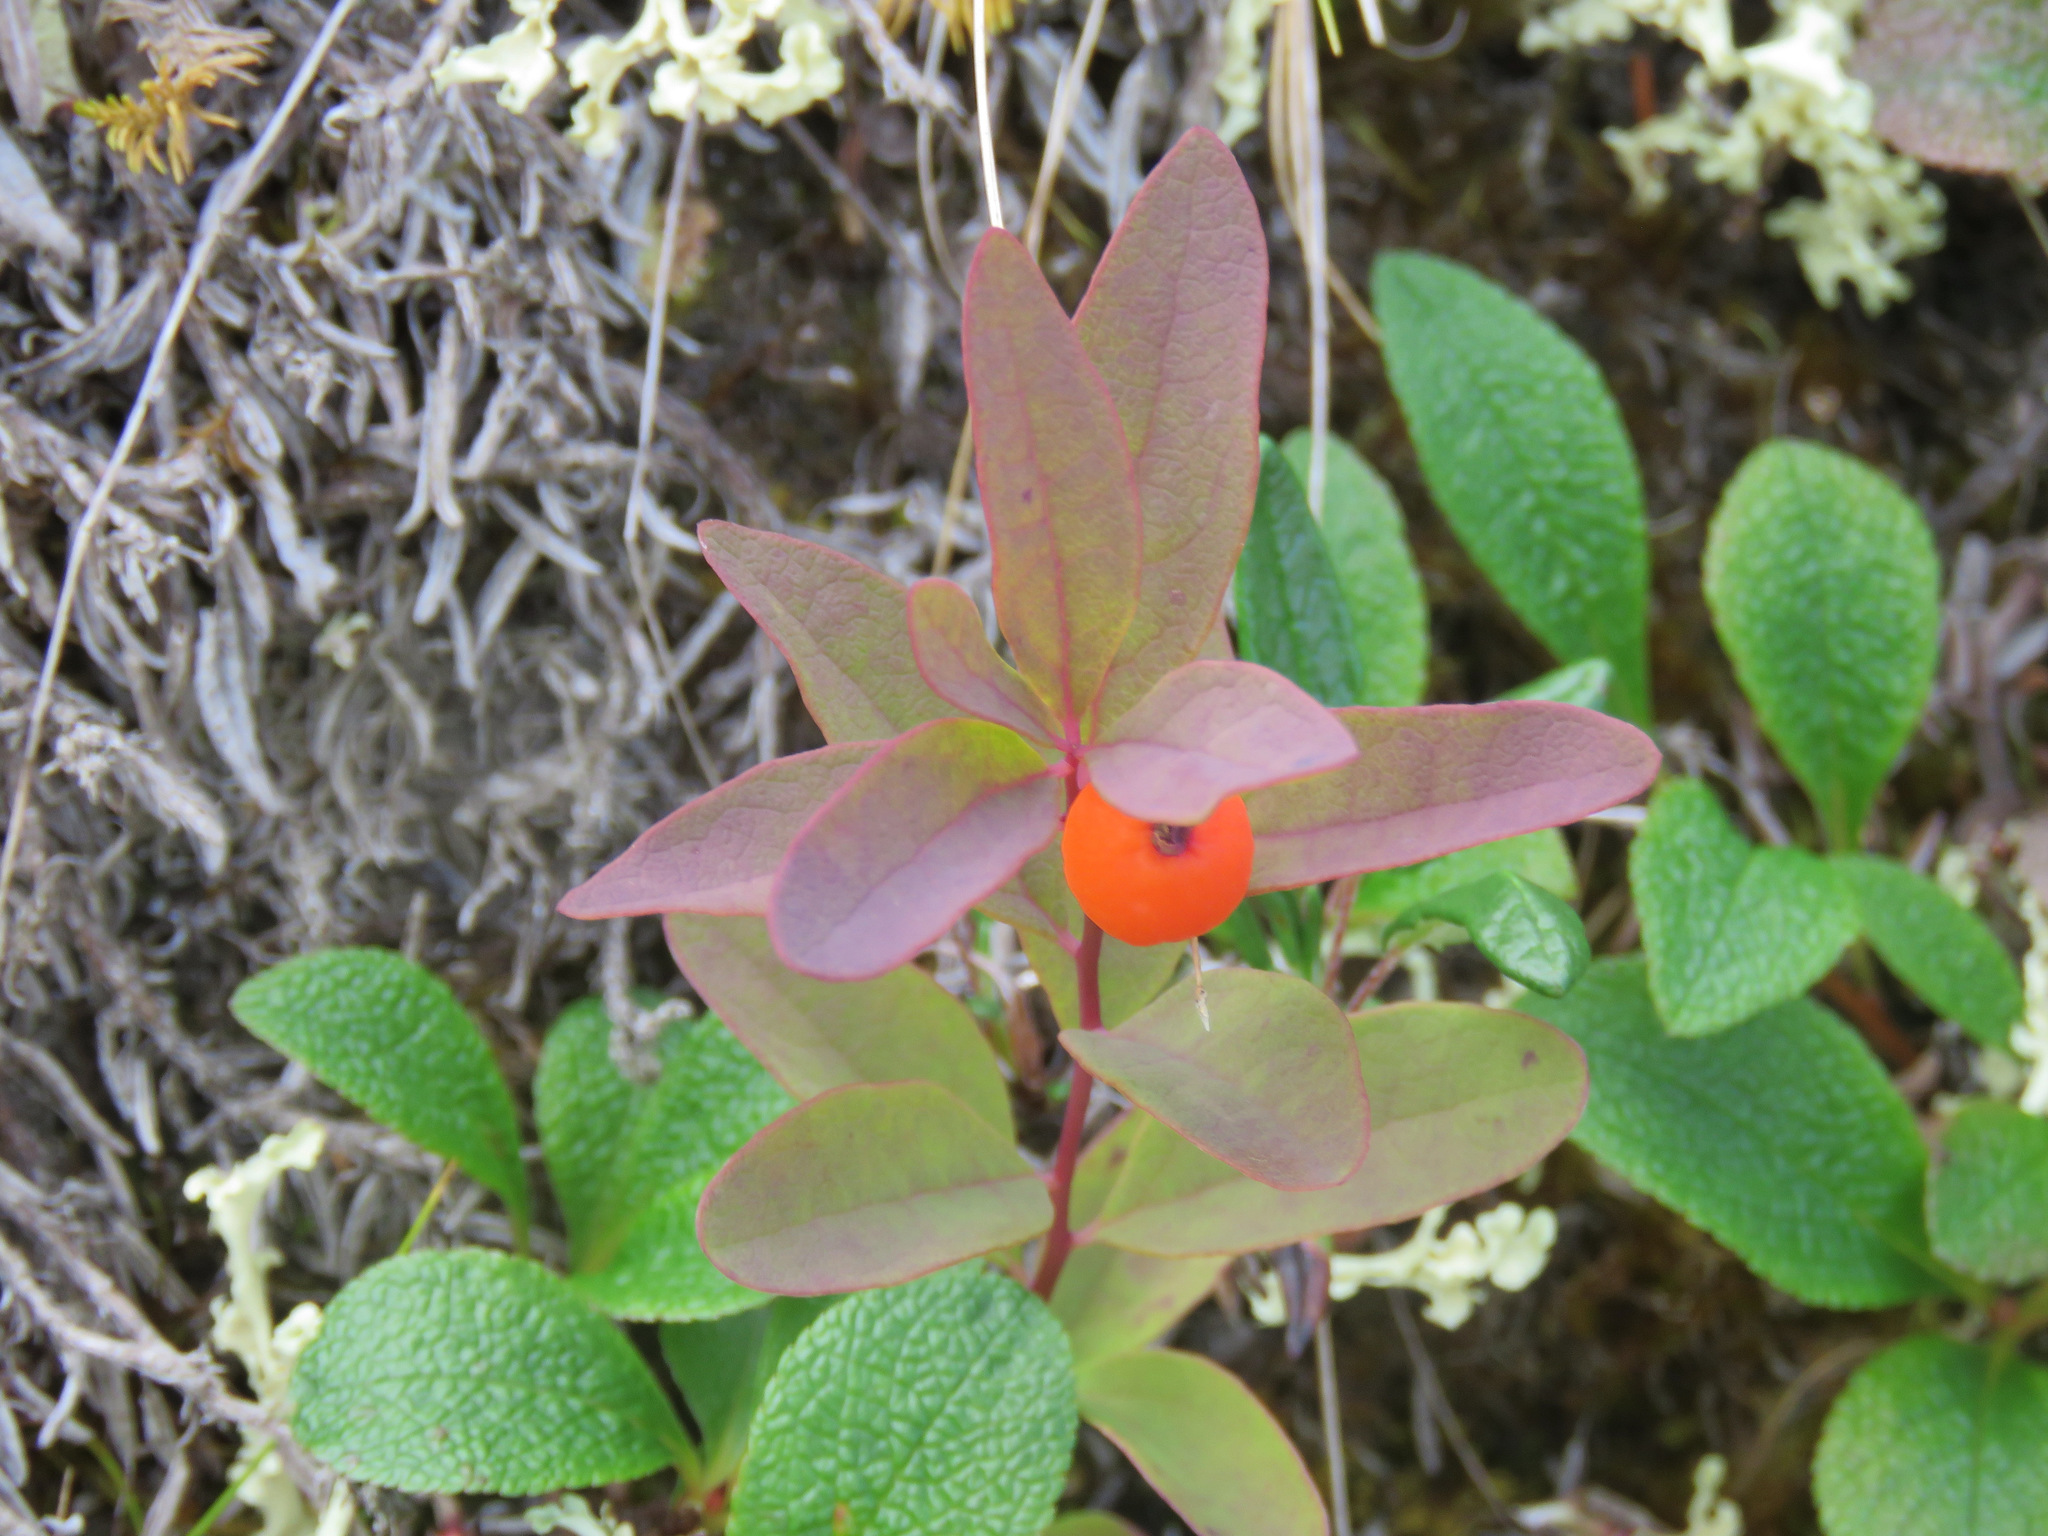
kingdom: Plantae
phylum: Tracheophyta
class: Magnoliopsida
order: Santalales
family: Comandraceae
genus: Geocaulon
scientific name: Geocaulon lividum
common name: Earthberry
